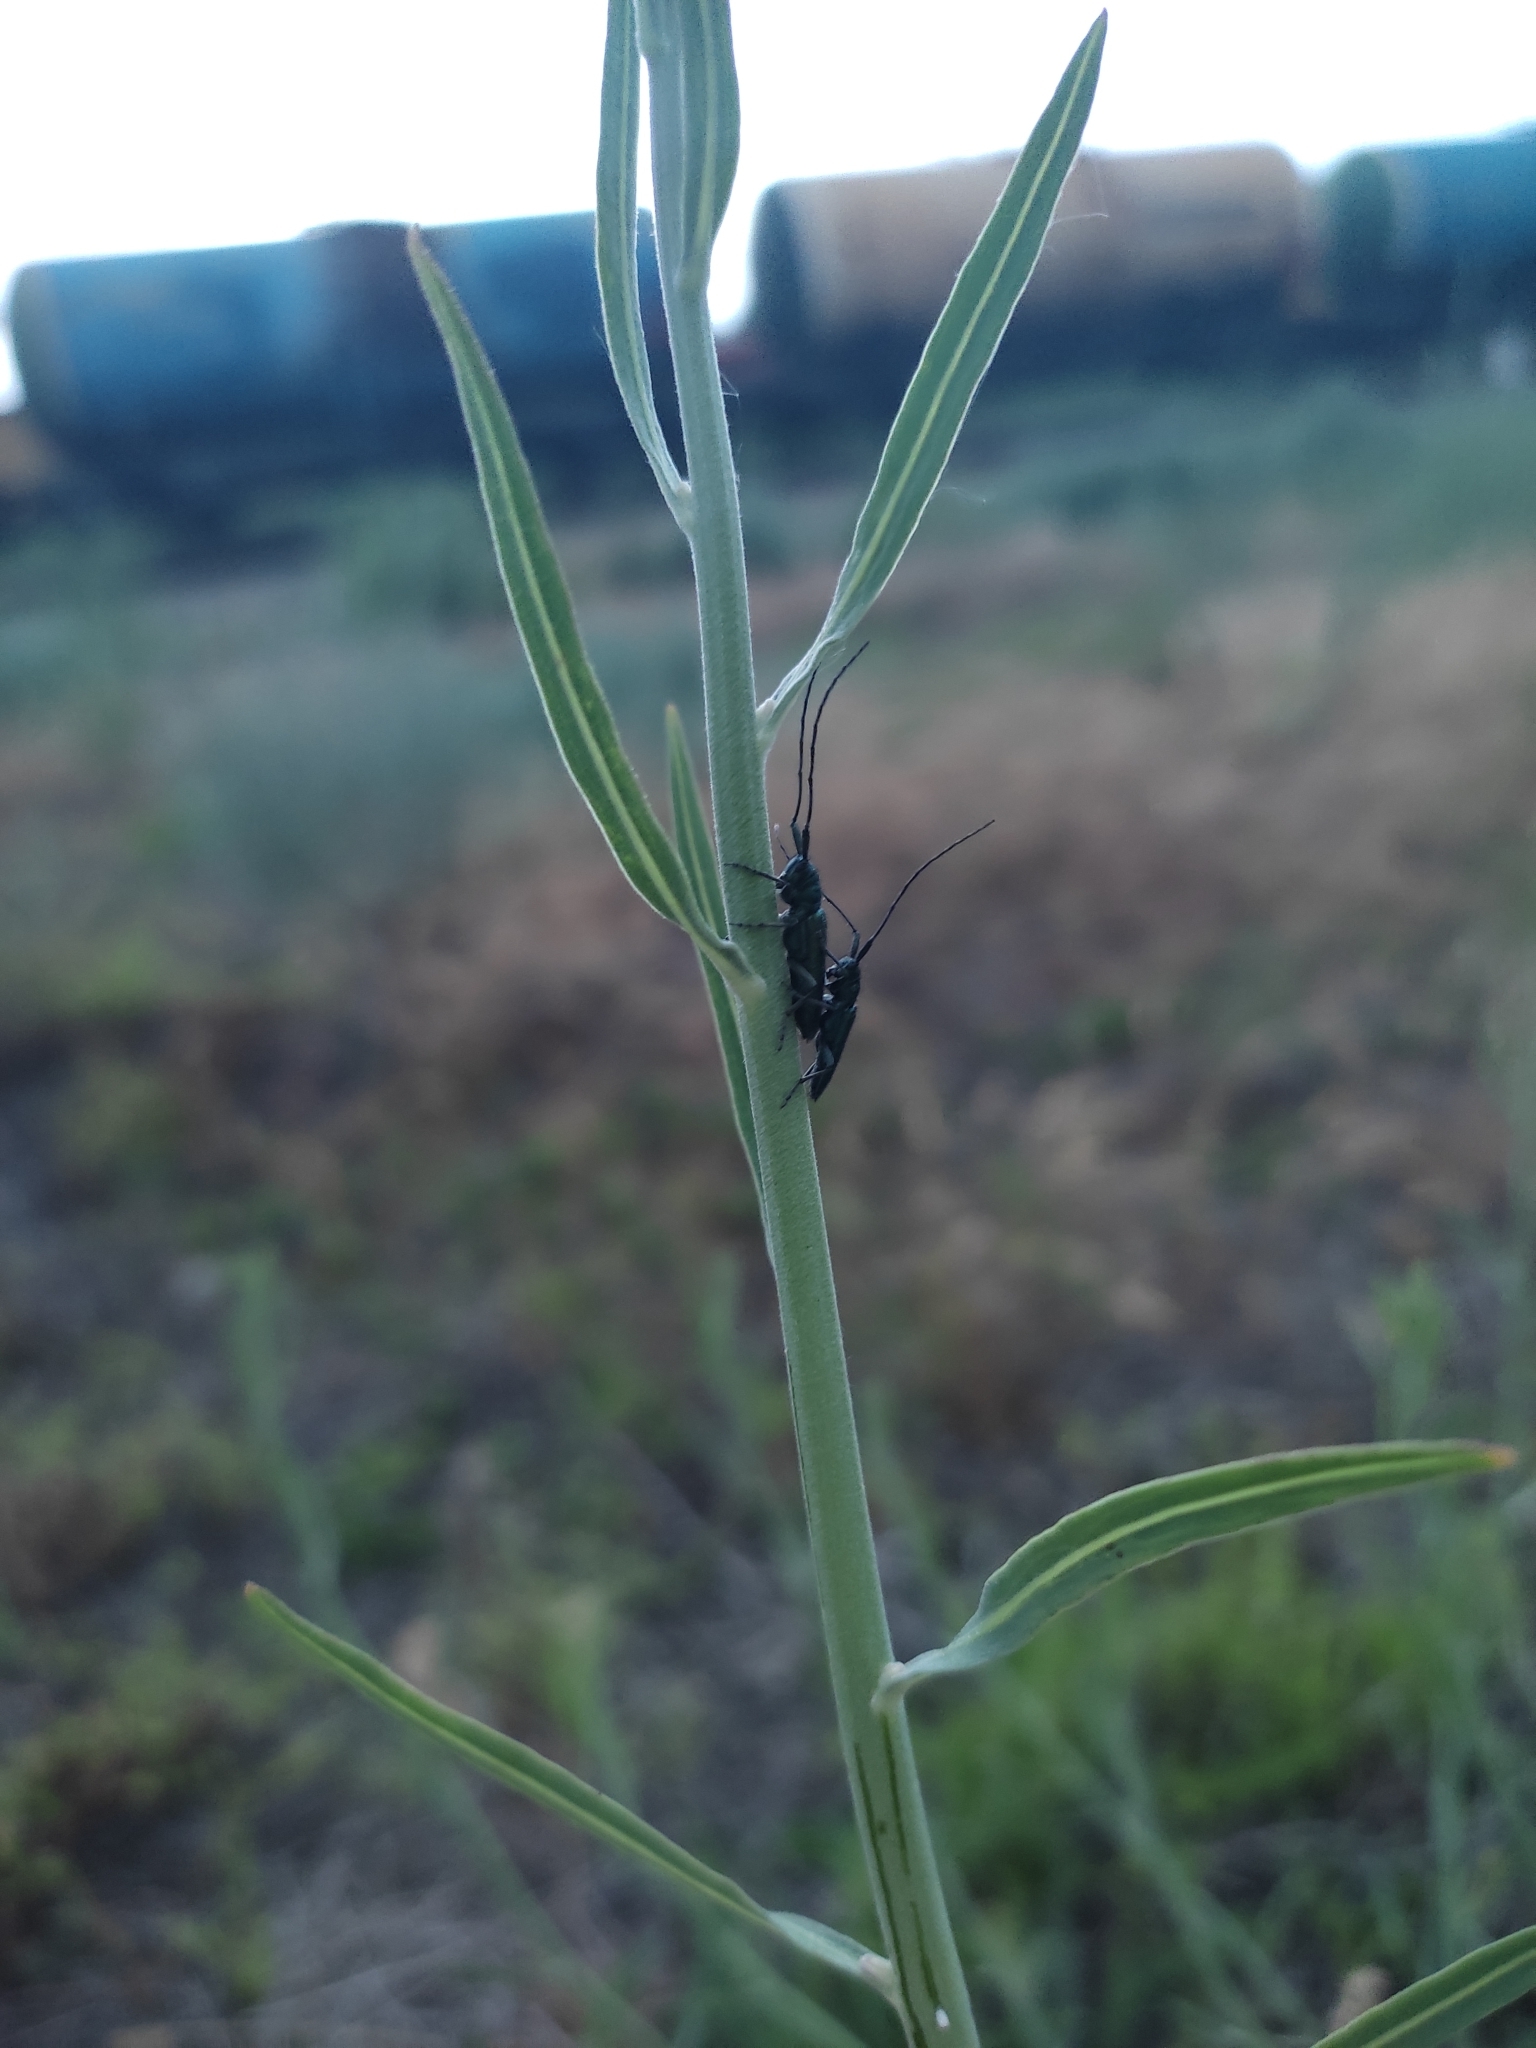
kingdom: Animalia
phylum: Arthropoda
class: Insecta
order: Coleoptera
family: Cerambycidae
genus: Agapanthia
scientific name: Agapanthia violacea
